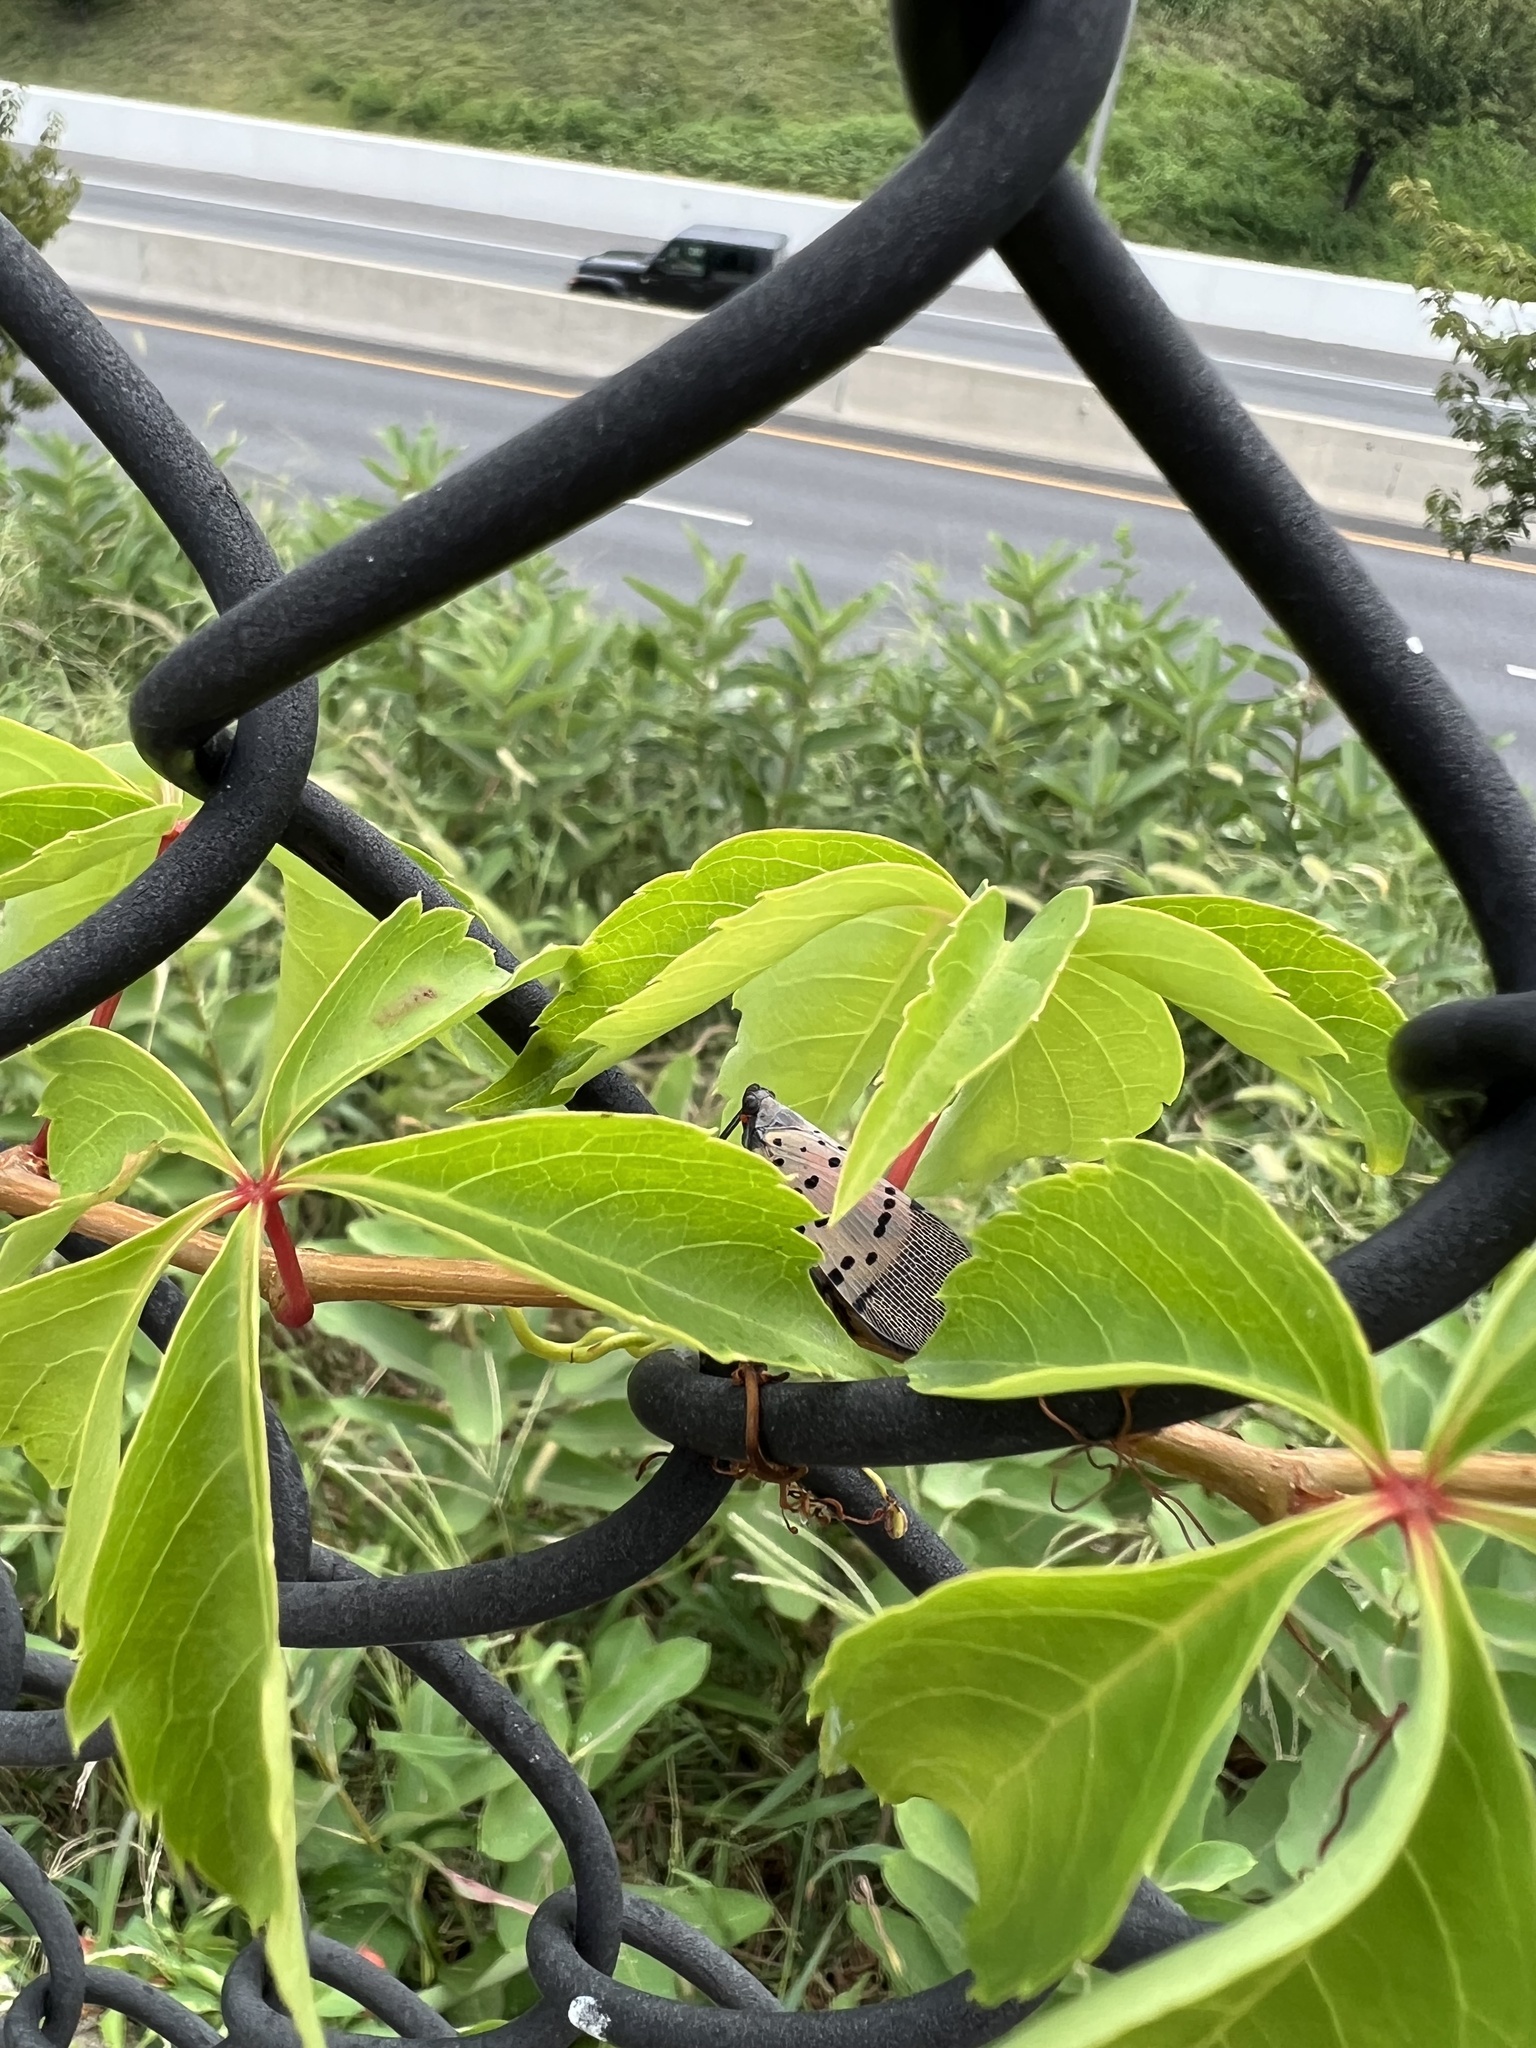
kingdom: Animalia
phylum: Arthropoda
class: Insecta
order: Hemiptera
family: Fulgoridae
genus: Lycorma
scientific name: Lycorma delicatula
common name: Spotted lanternfly
